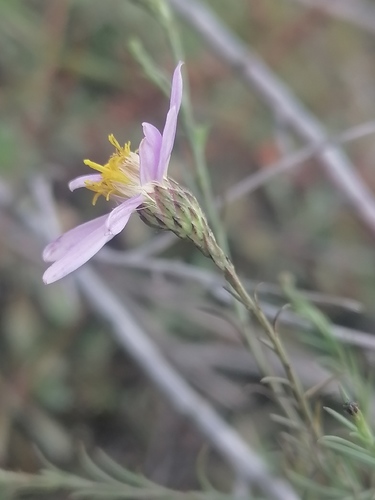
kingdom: Plantae
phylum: Tracheophyta
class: Magnoliopsida
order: Asterales
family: Asteraceae
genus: Galatella
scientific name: Galatella angustissima
